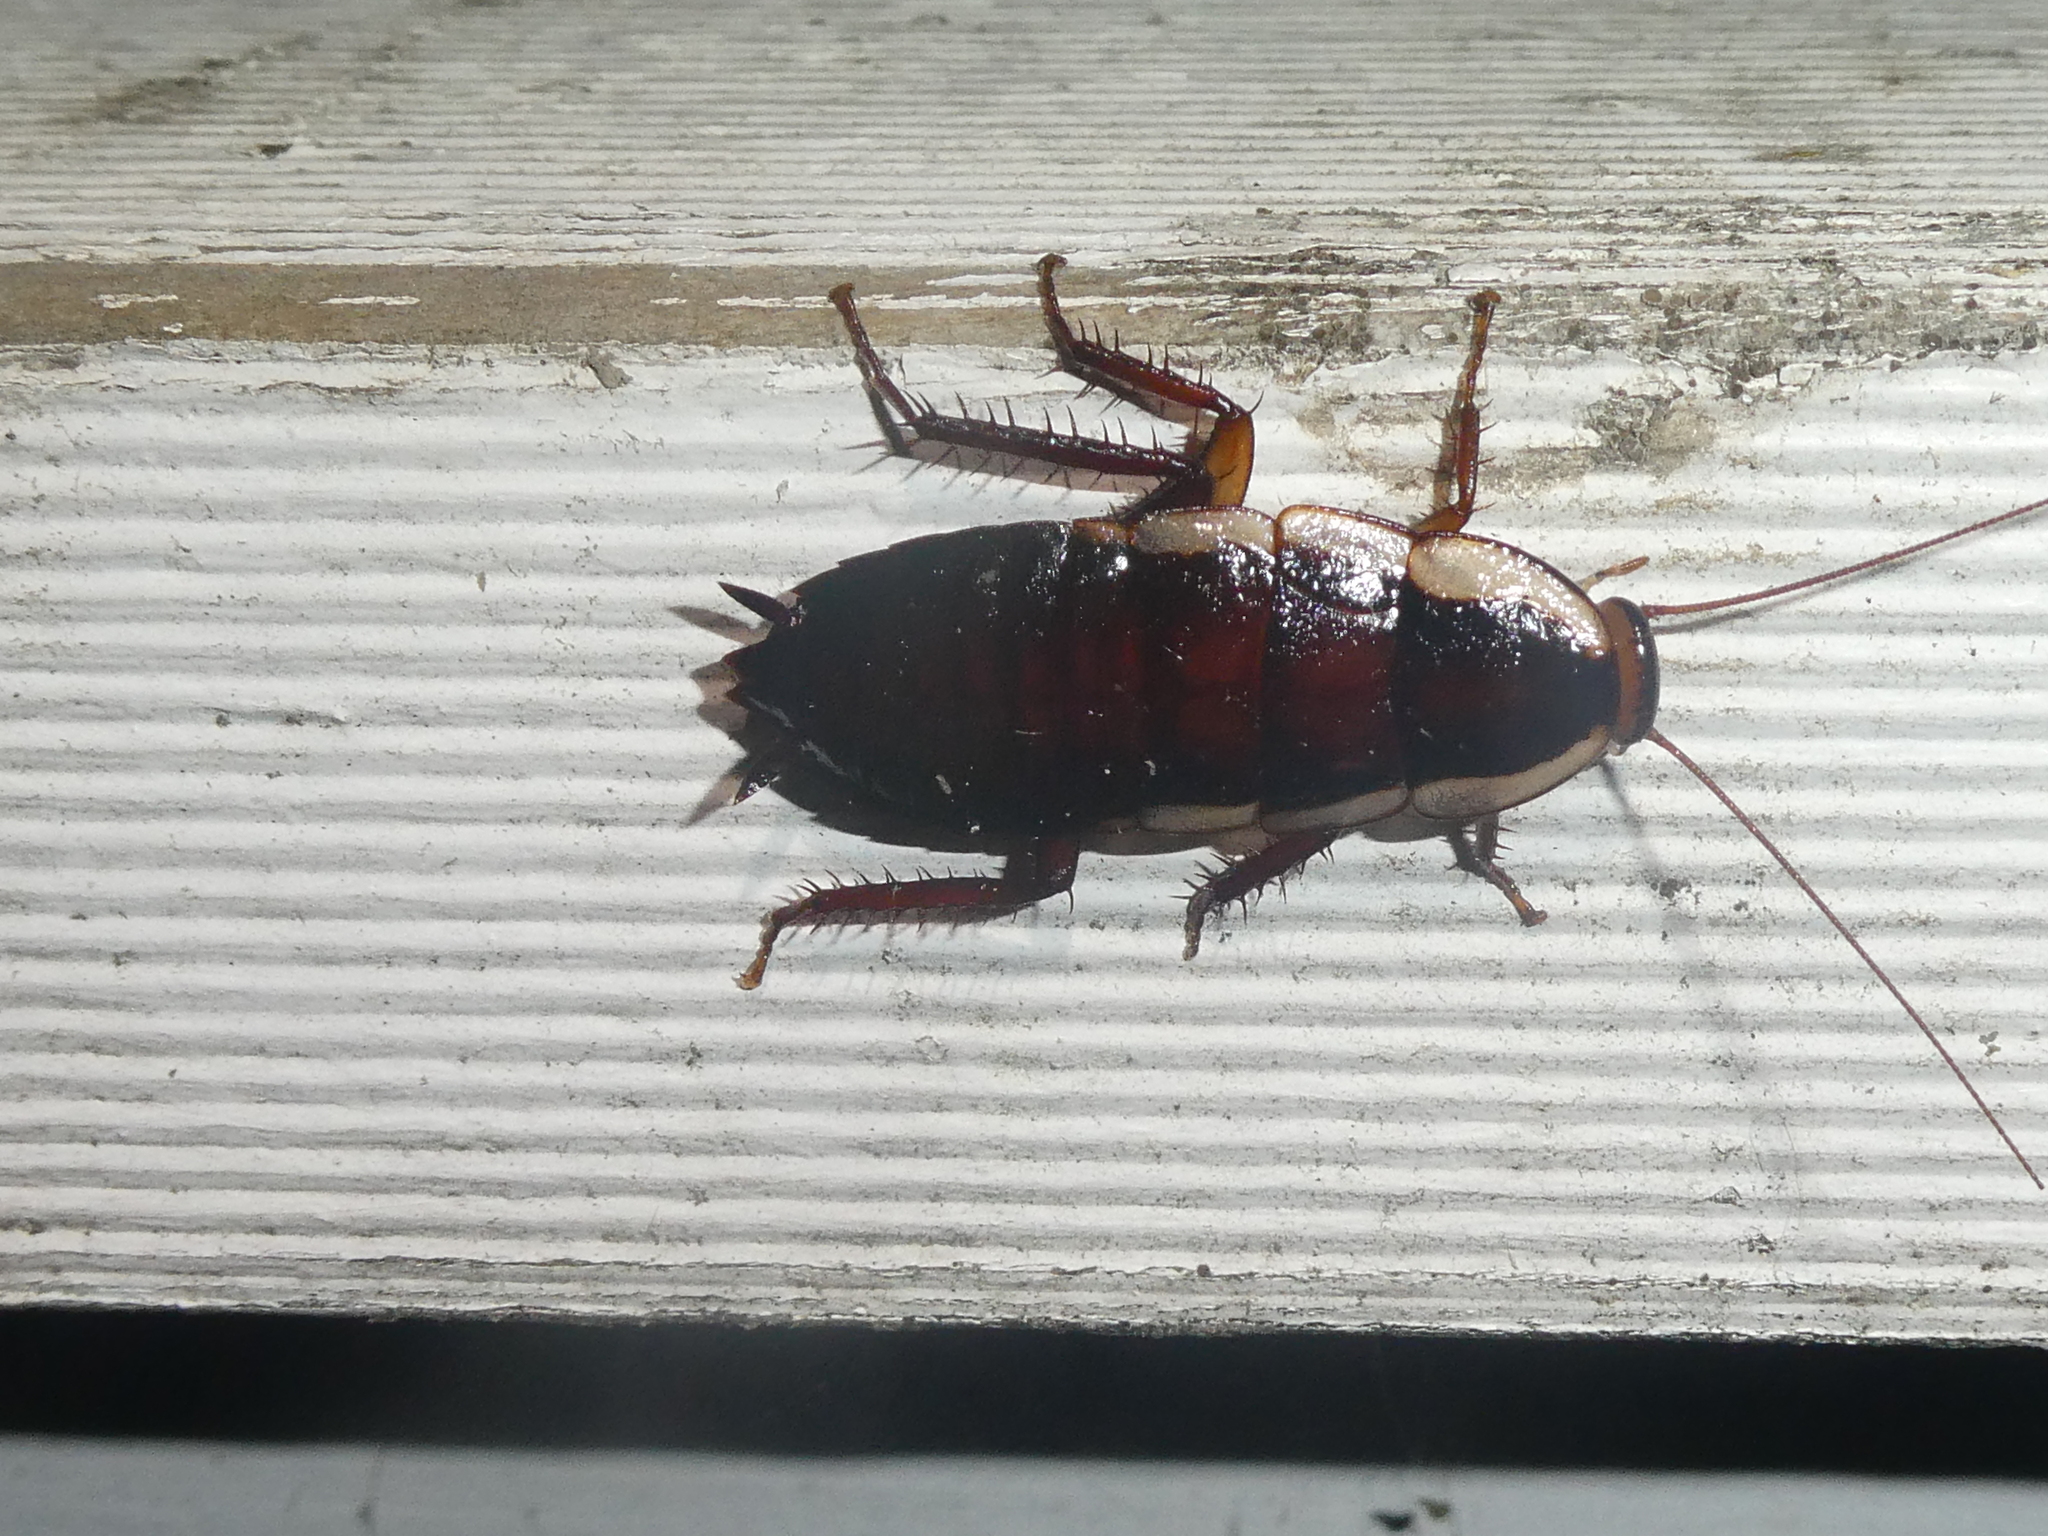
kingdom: Animalia
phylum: Arthropoda
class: Insecta
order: Blattodea
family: Blattidae
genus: Drymaplaneta
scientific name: Drymaplaneta semivitta
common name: Gisborne cockroach
